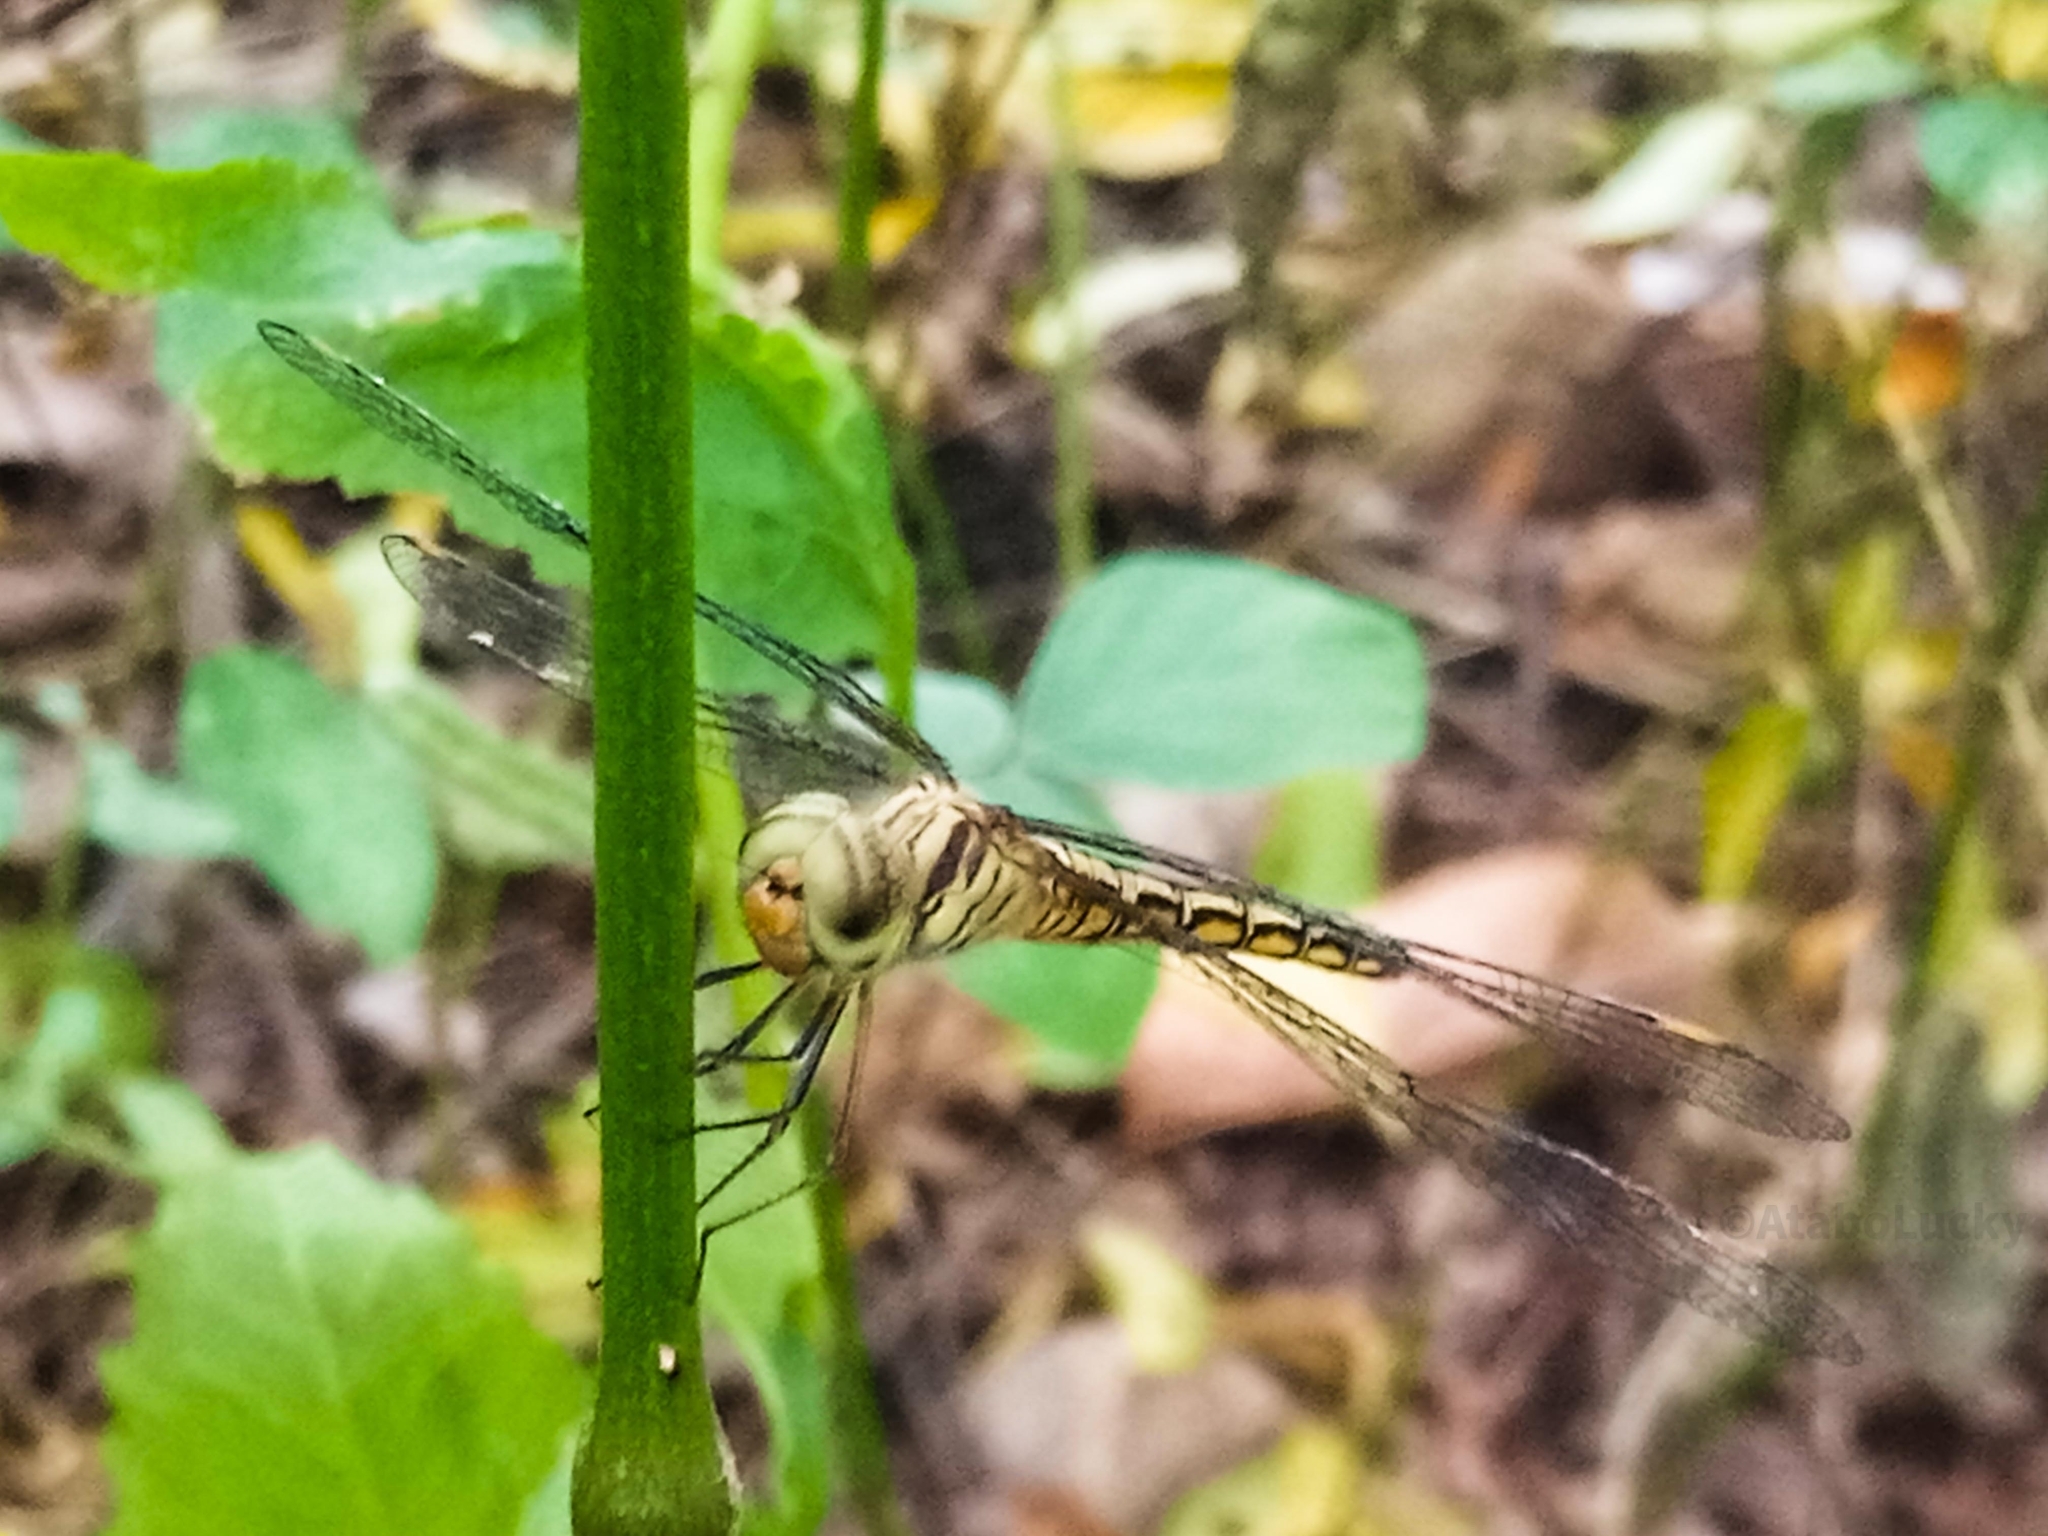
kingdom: Animalia
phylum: Arthropoda
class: Insecta
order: Odonata
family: Libellulidae
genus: Parazyxomma
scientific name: Parazyxomma flavicans
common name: Banded duskdarter
